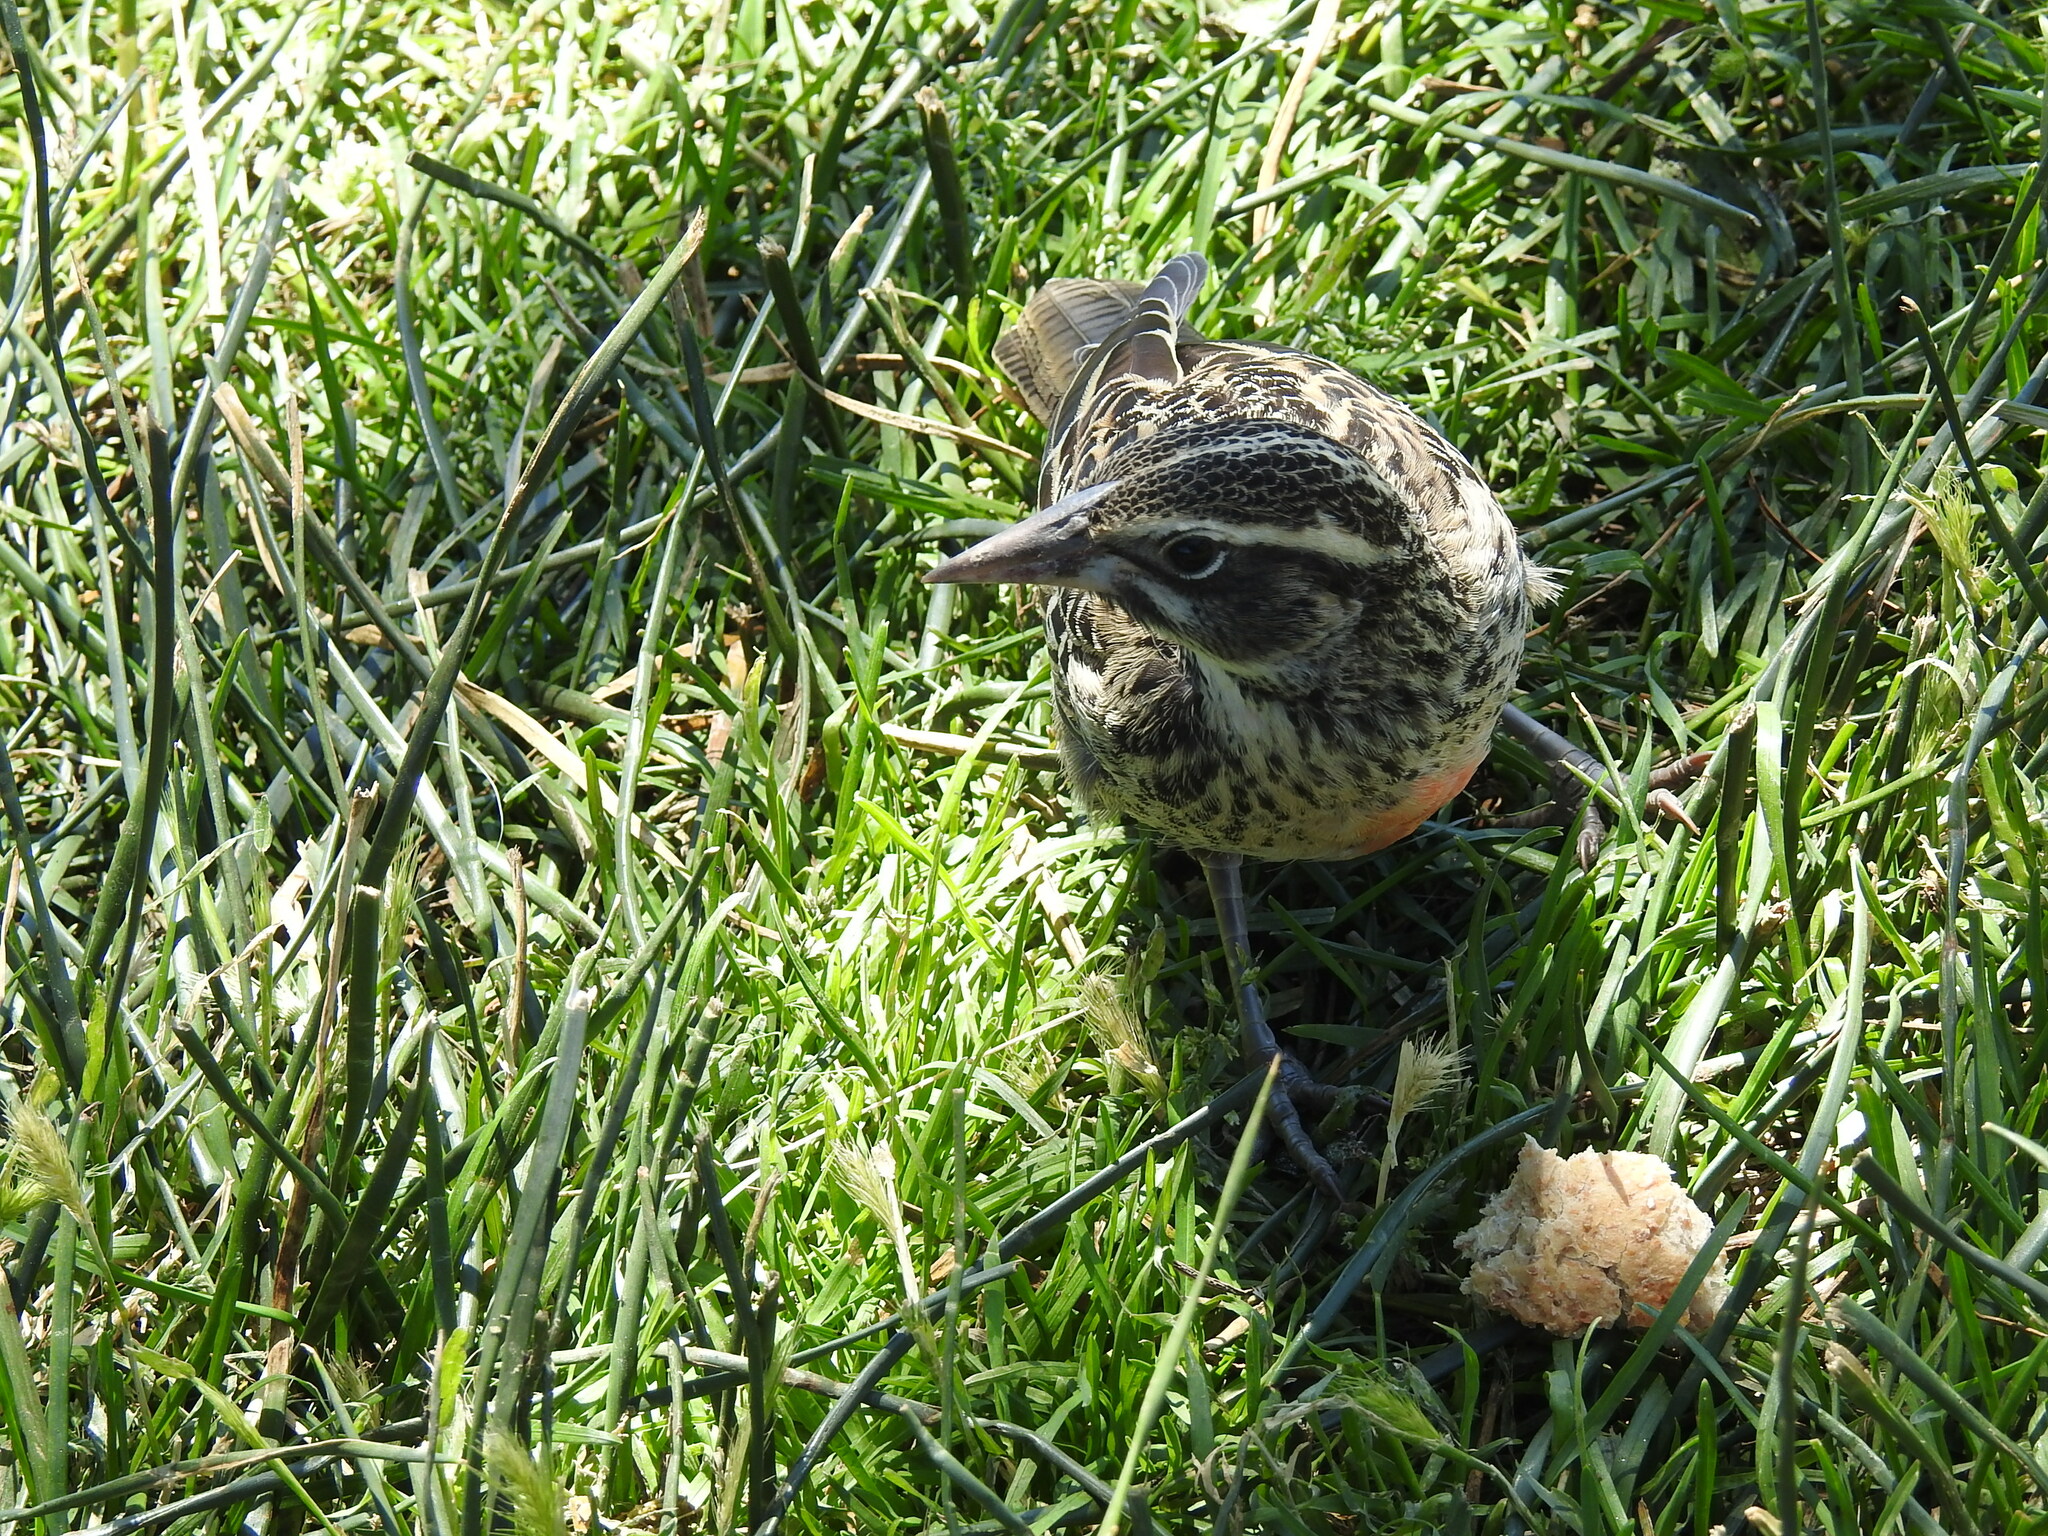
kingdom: Animalia
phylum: Chordata
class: Aves
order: Passeriformes
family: Icteridae
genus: Sturnella
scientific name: Sturnella loyca
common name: Long-tailed meadowlark
